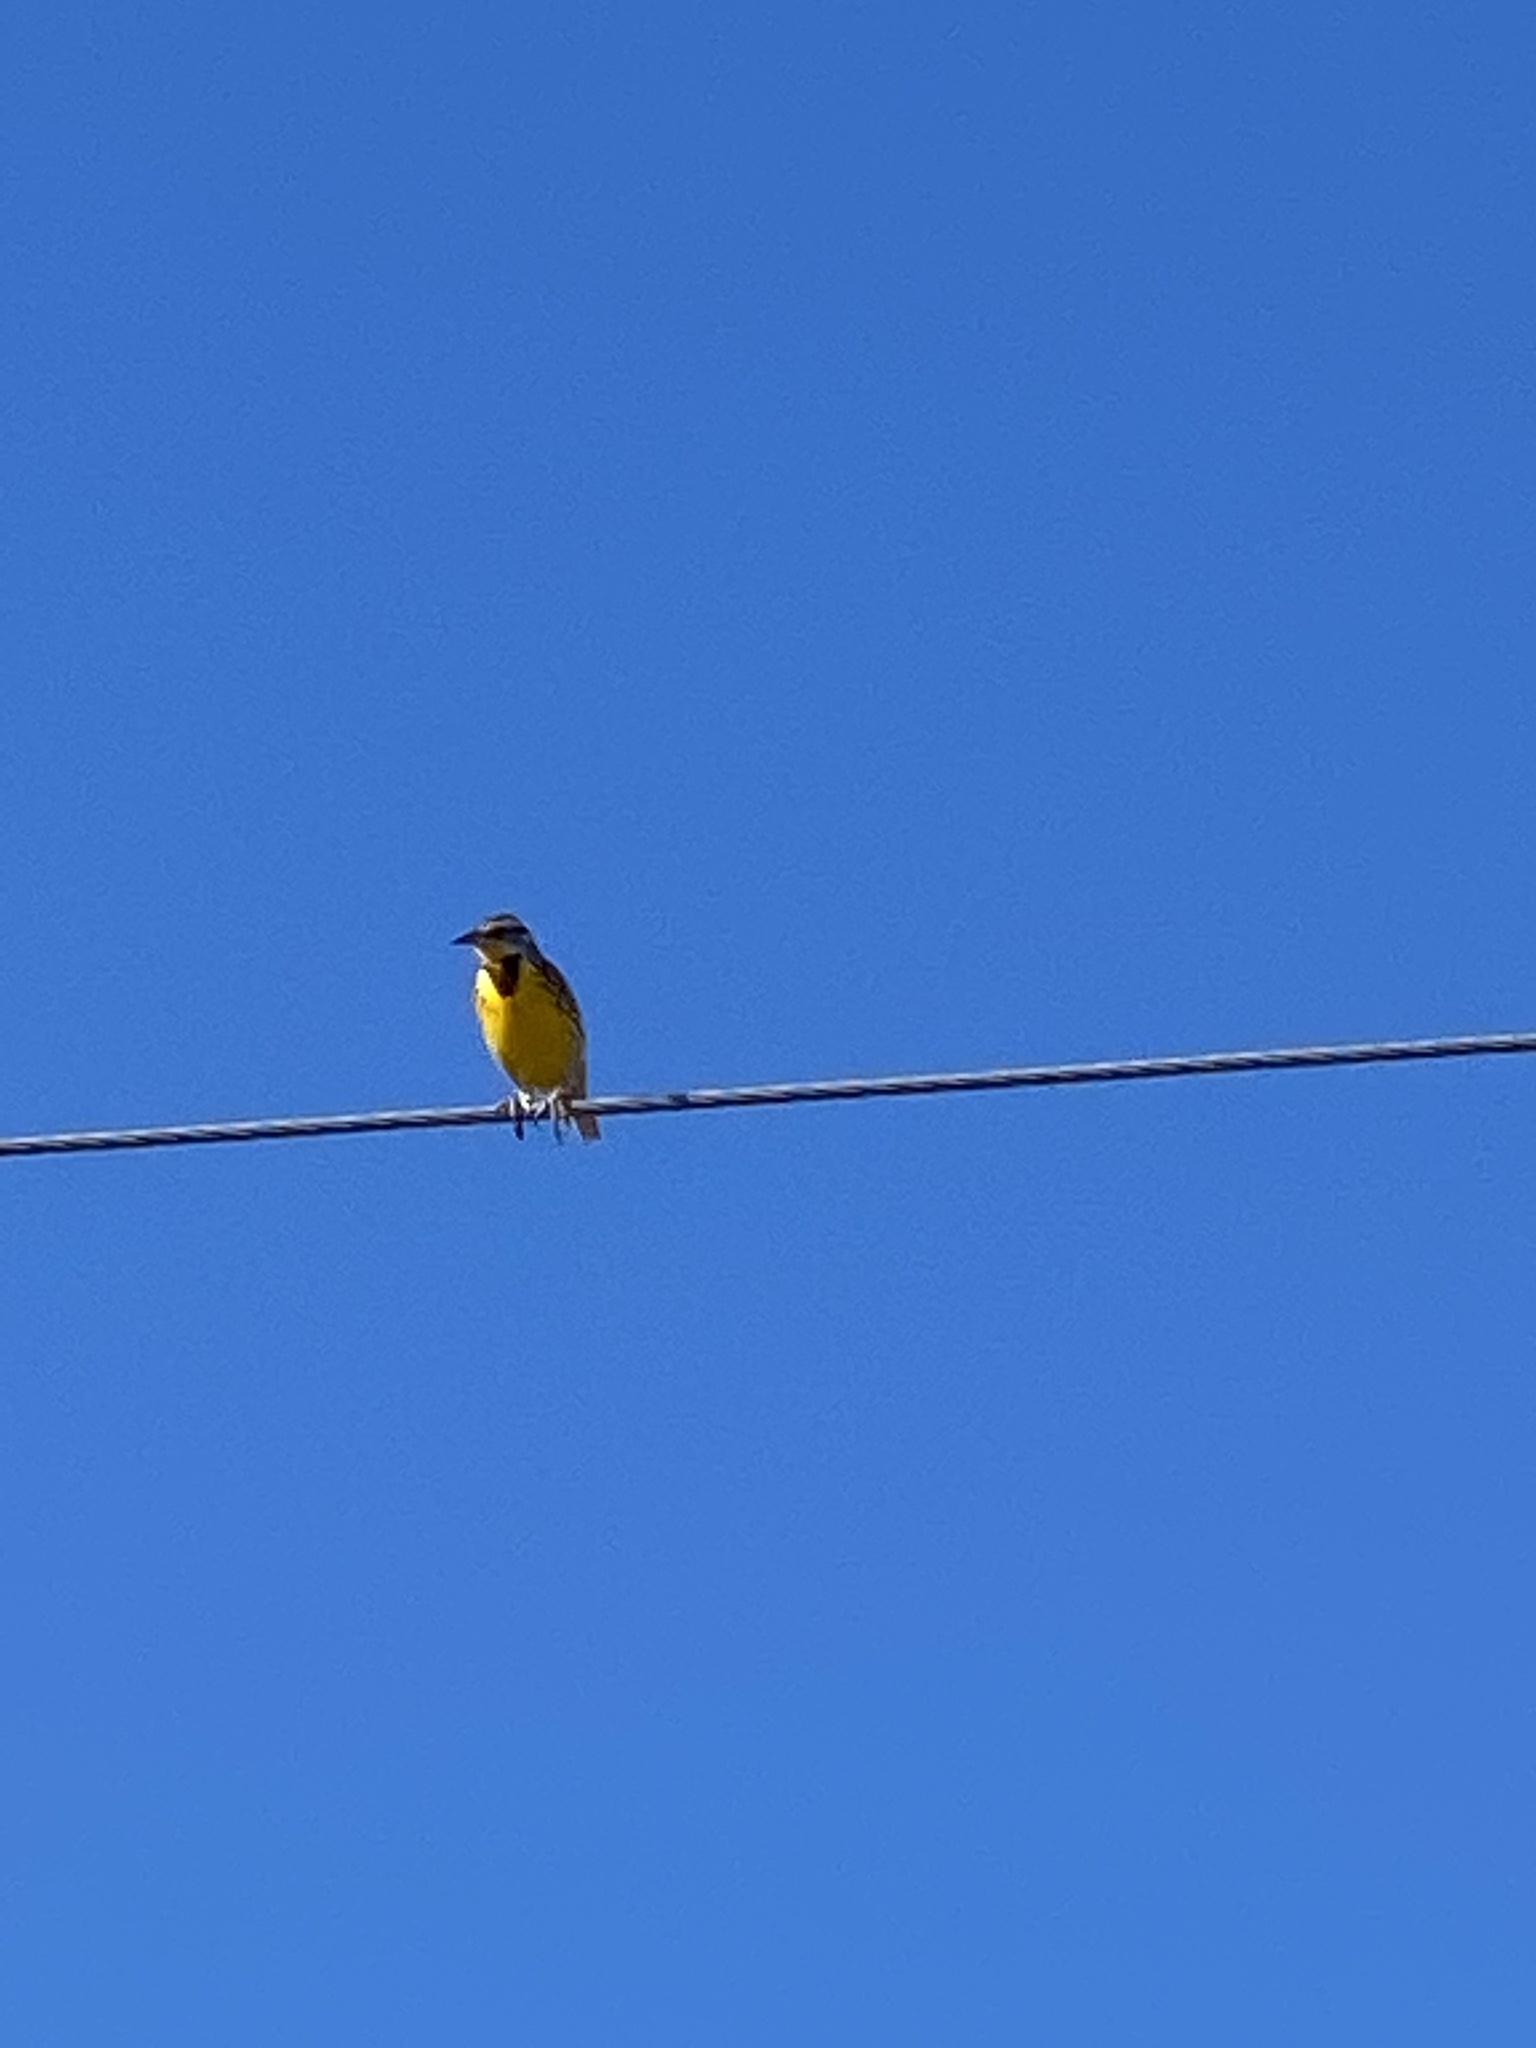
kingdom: Animalia
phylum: Chordata
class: Aves
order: Passeriformes
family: Icteridae
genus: Sturnella
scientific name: Sturnella magna
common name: Eastern meadowlark
